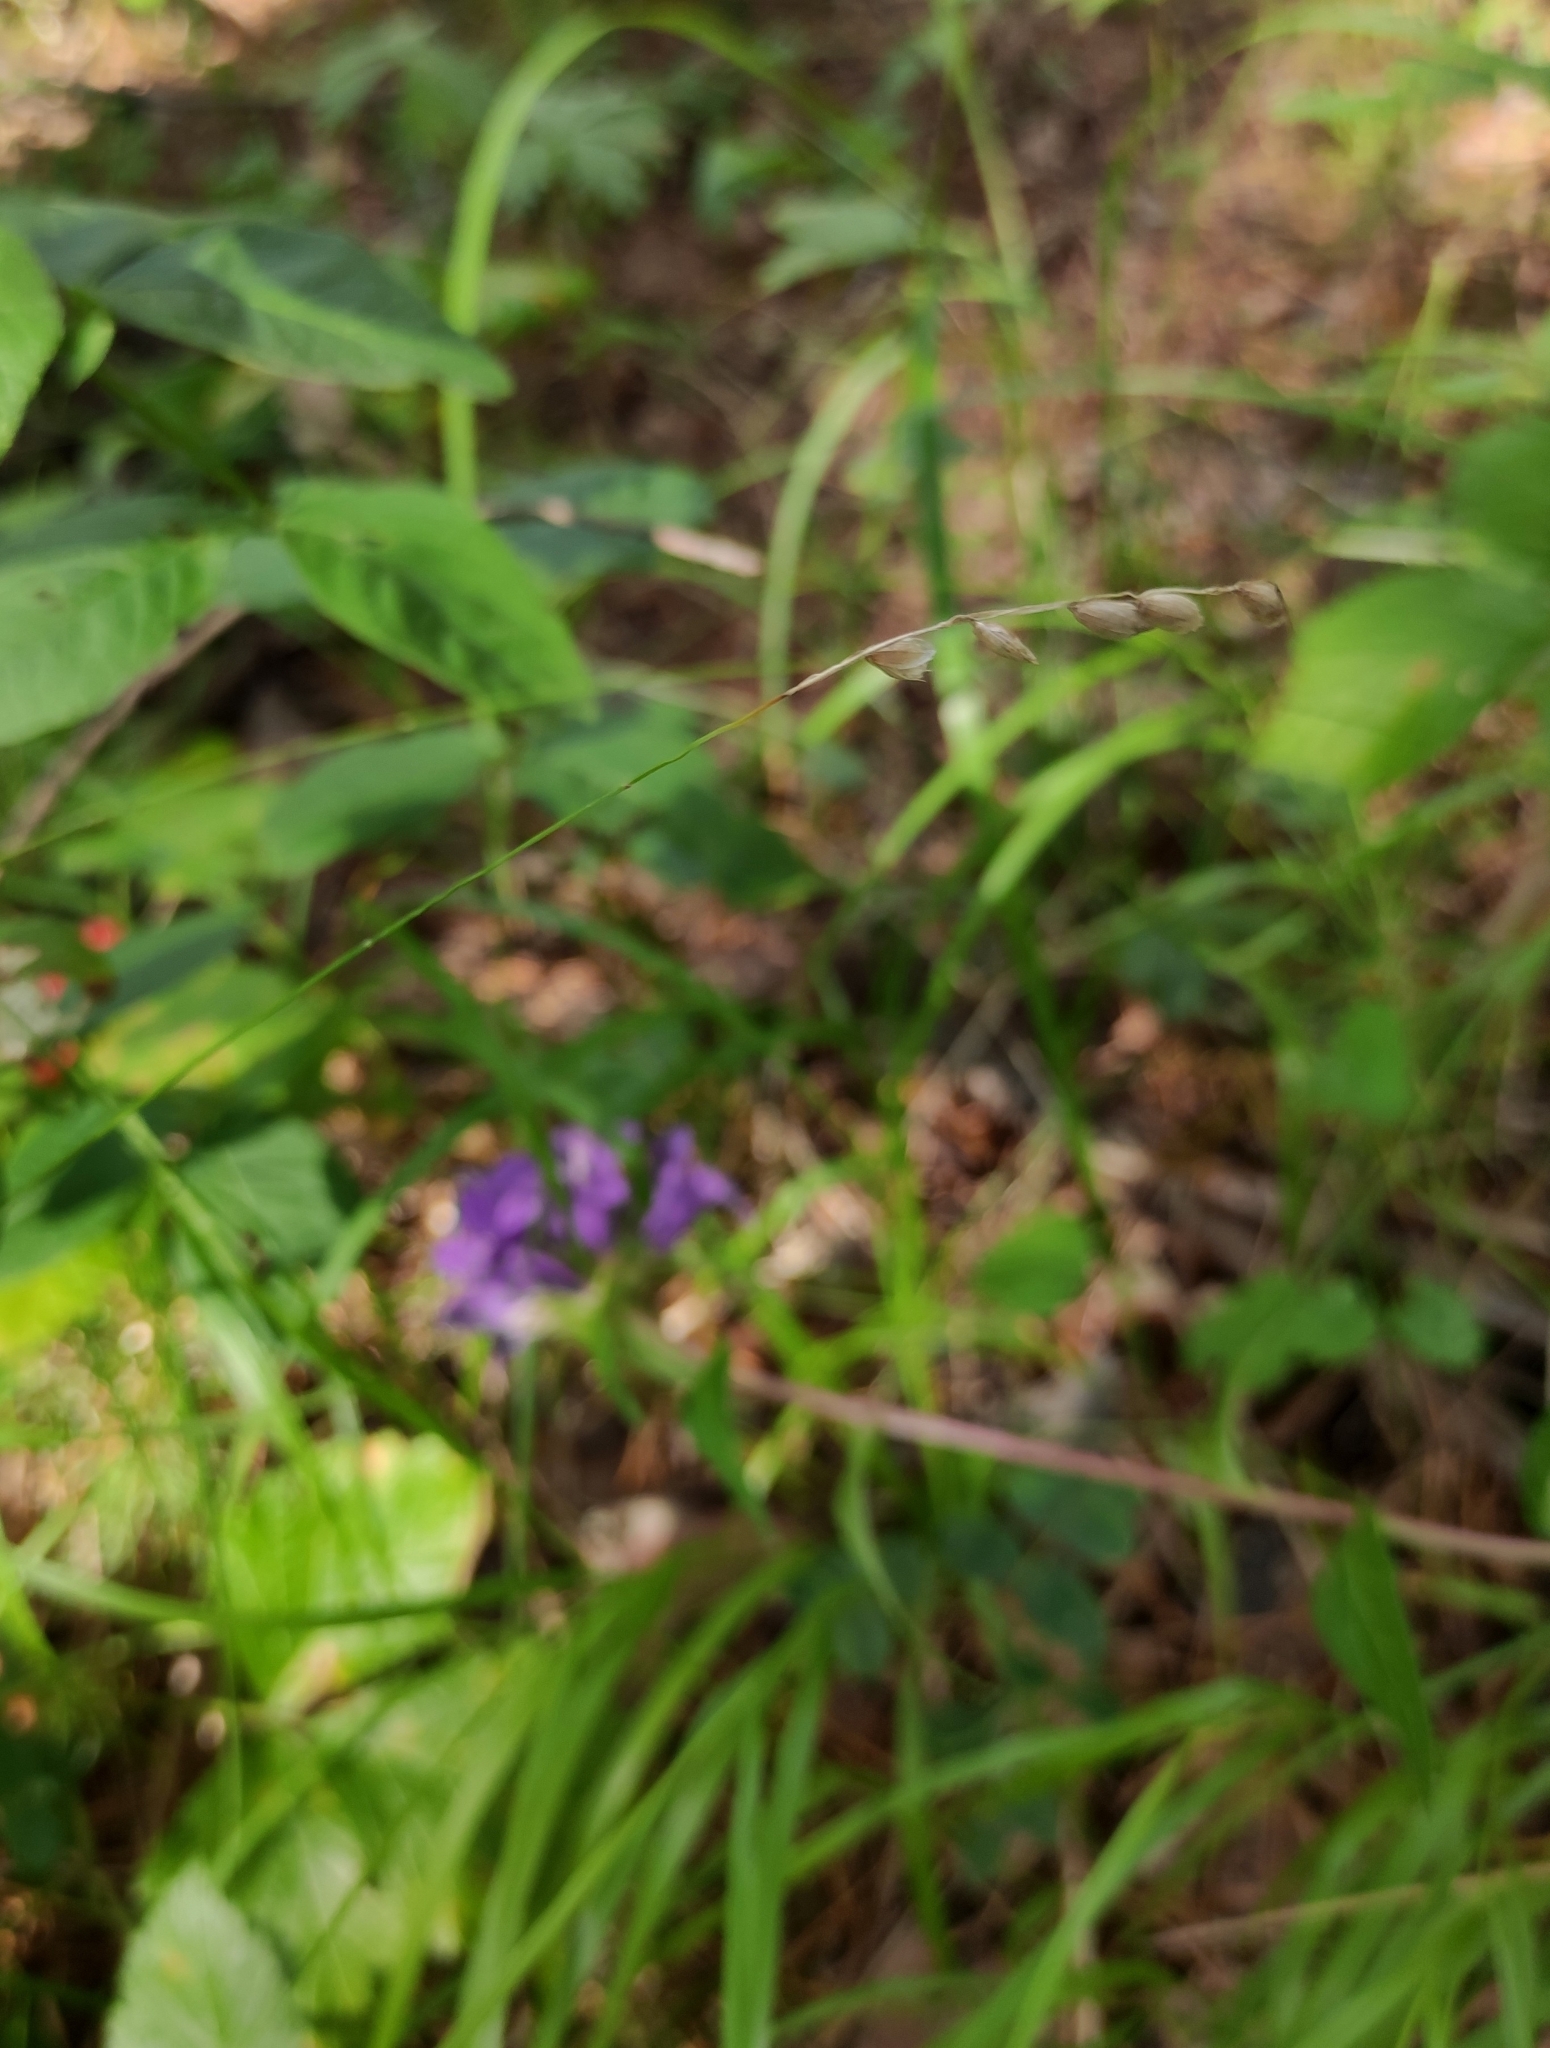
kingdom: Plantae
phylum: Tracheophyta
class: Liliopsida
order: Poales
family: Poaceae
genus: Melica
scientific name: Melica nutans
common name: Mountain melick
